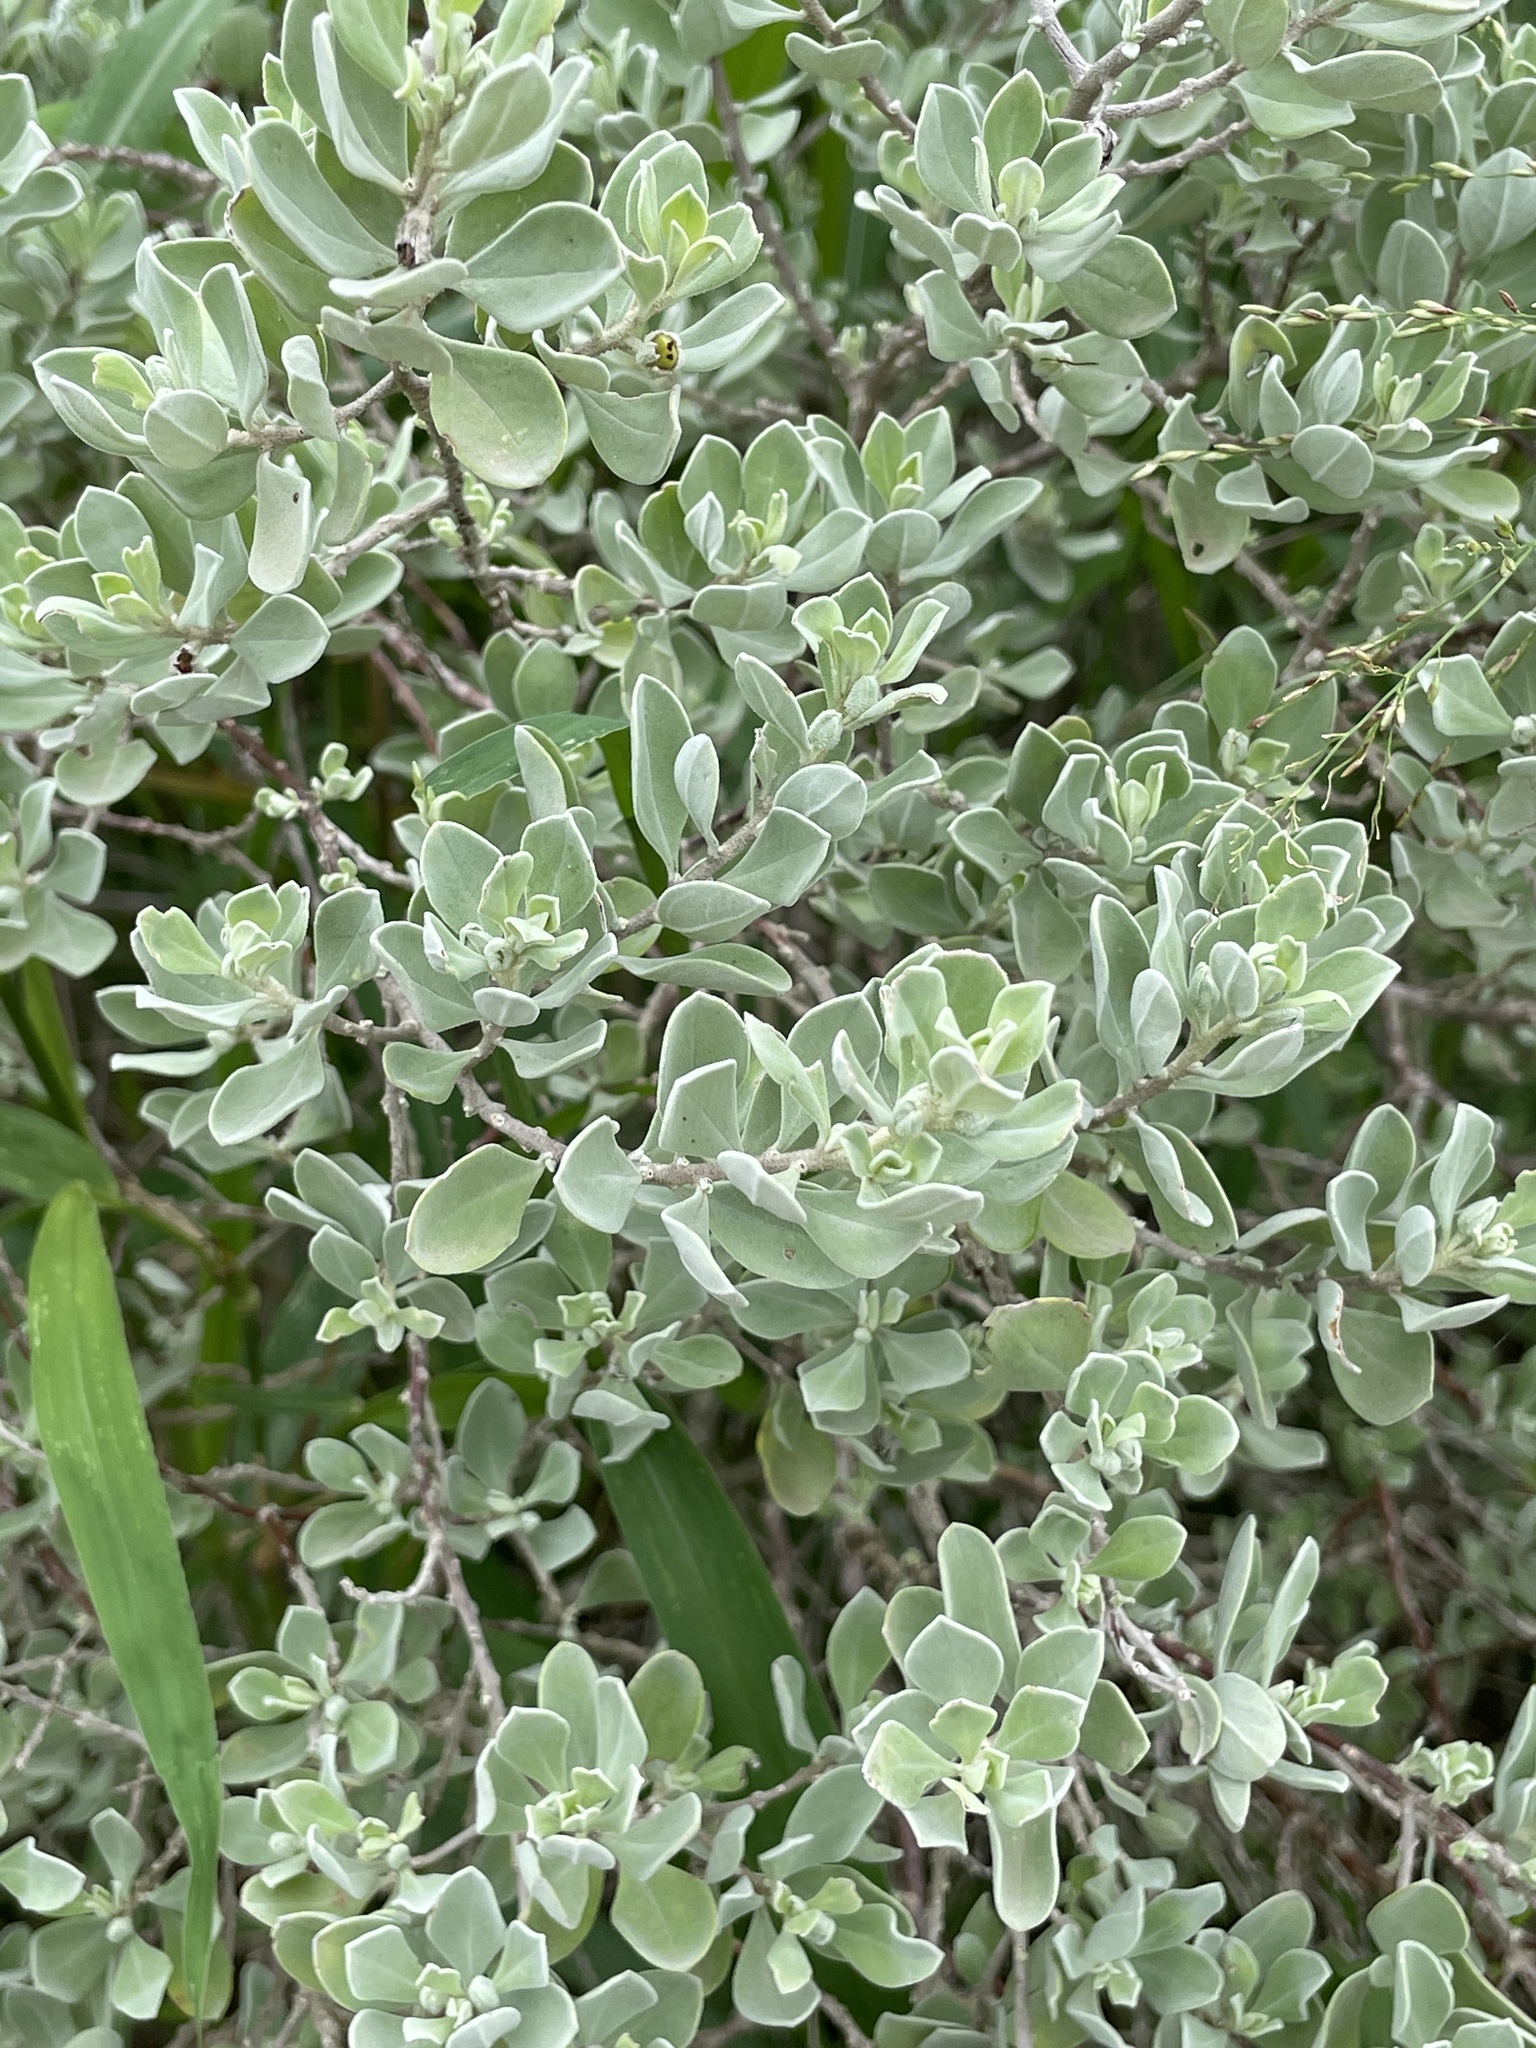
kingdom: Plantae
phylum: Tracheophyta
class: Magnoliopsida
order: Lamiales
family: Scrophulariaceae
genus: Leucophyllum
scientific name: Leucophyllum frutescens
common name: Texas silverleaf
